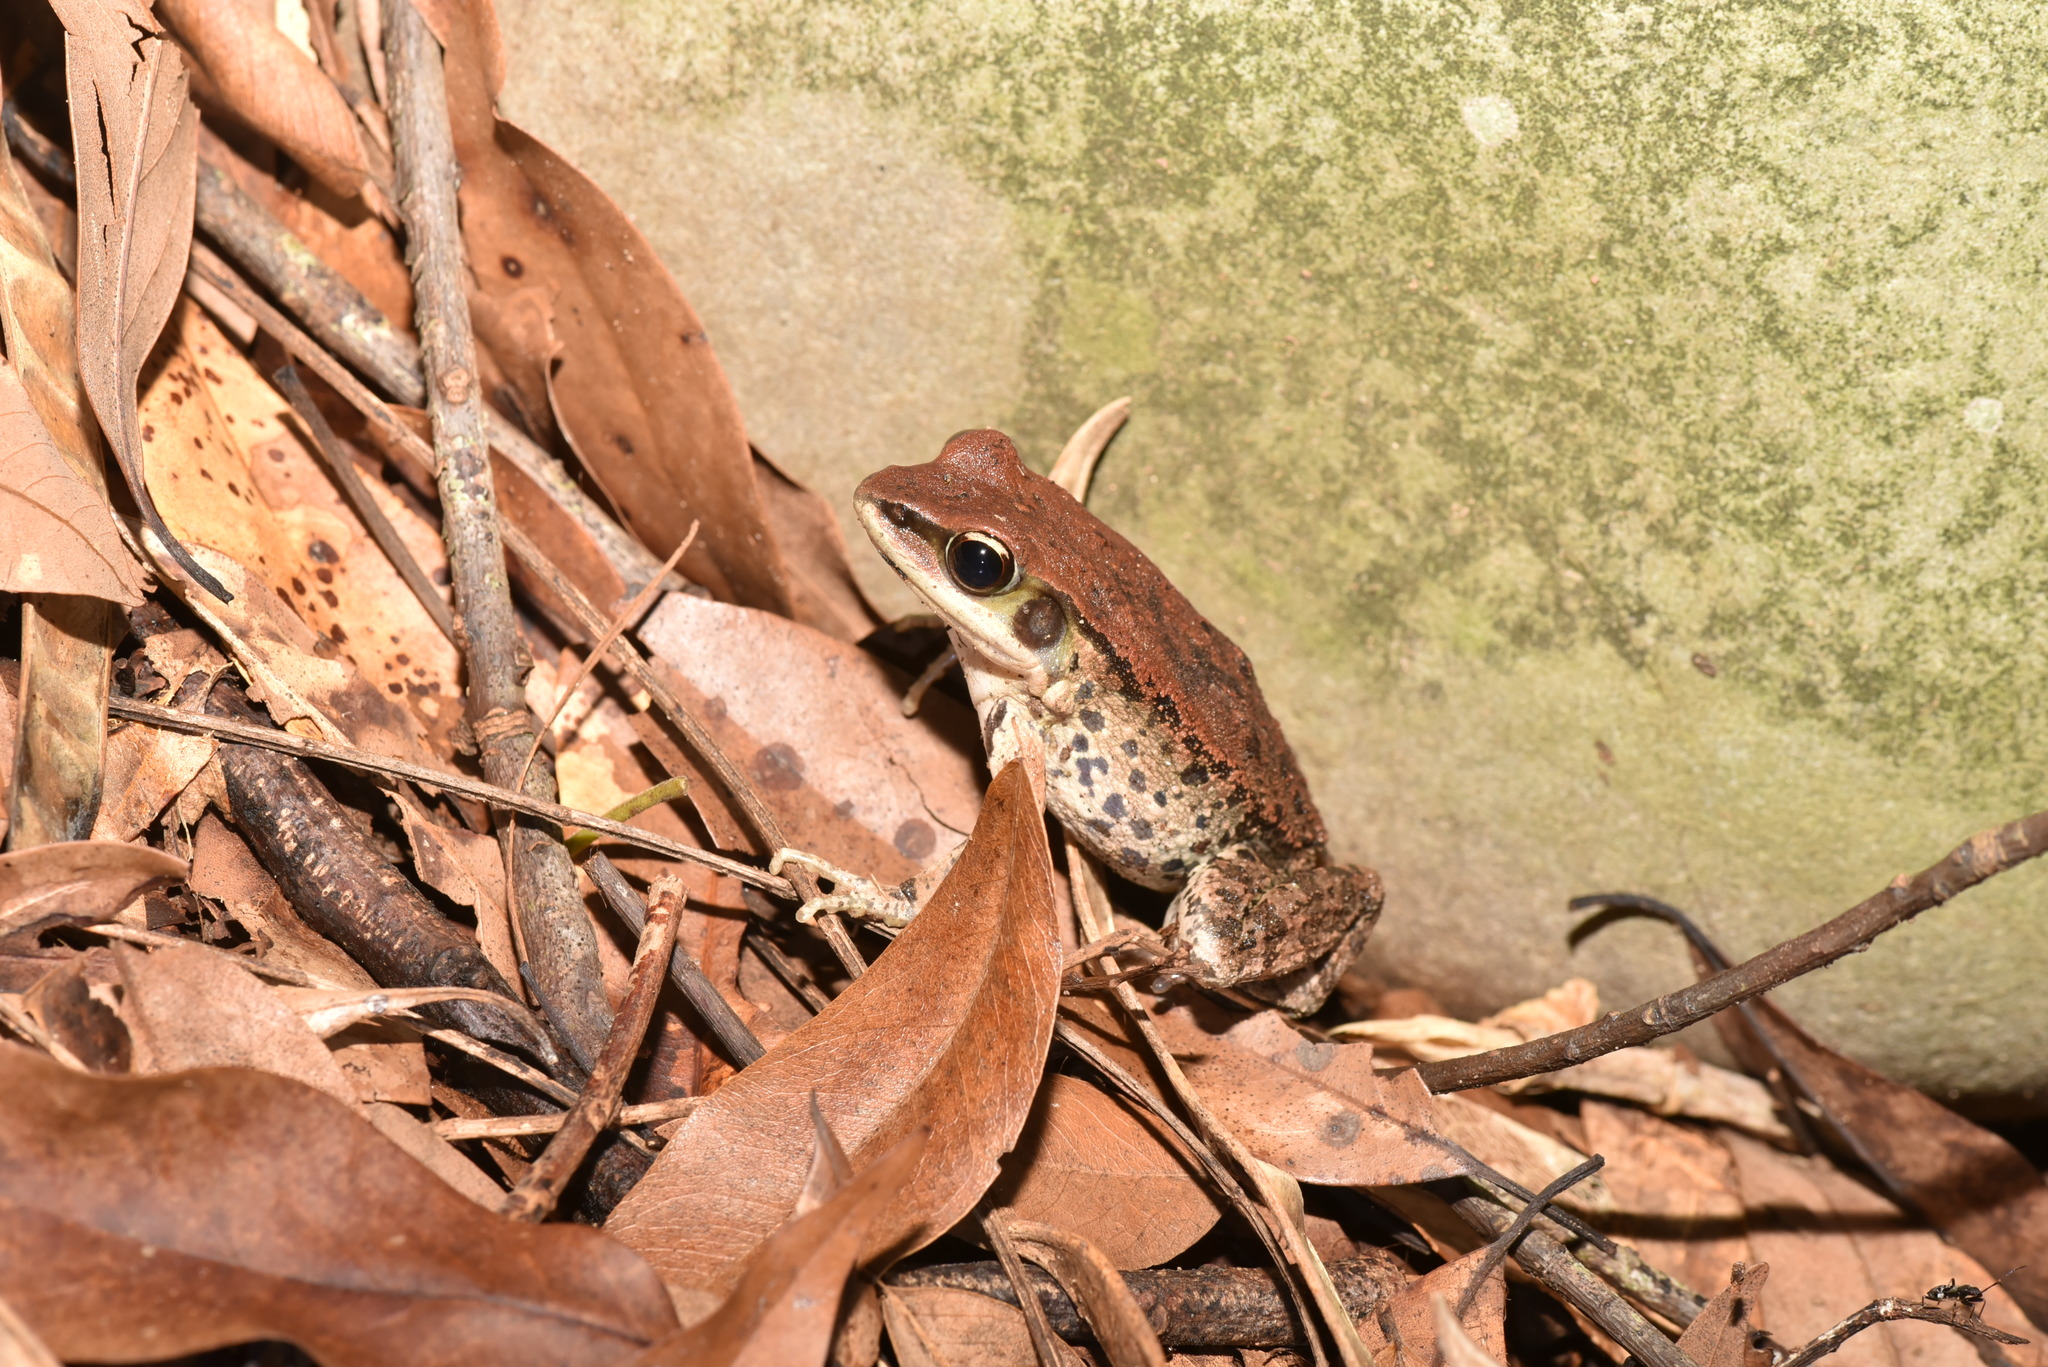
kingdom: Animalia
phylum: Chordata
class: Amphibia
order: Anura
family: Ranidae
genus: Hylarana
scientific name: Hylarana latouchii
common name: Broad-folded frog
